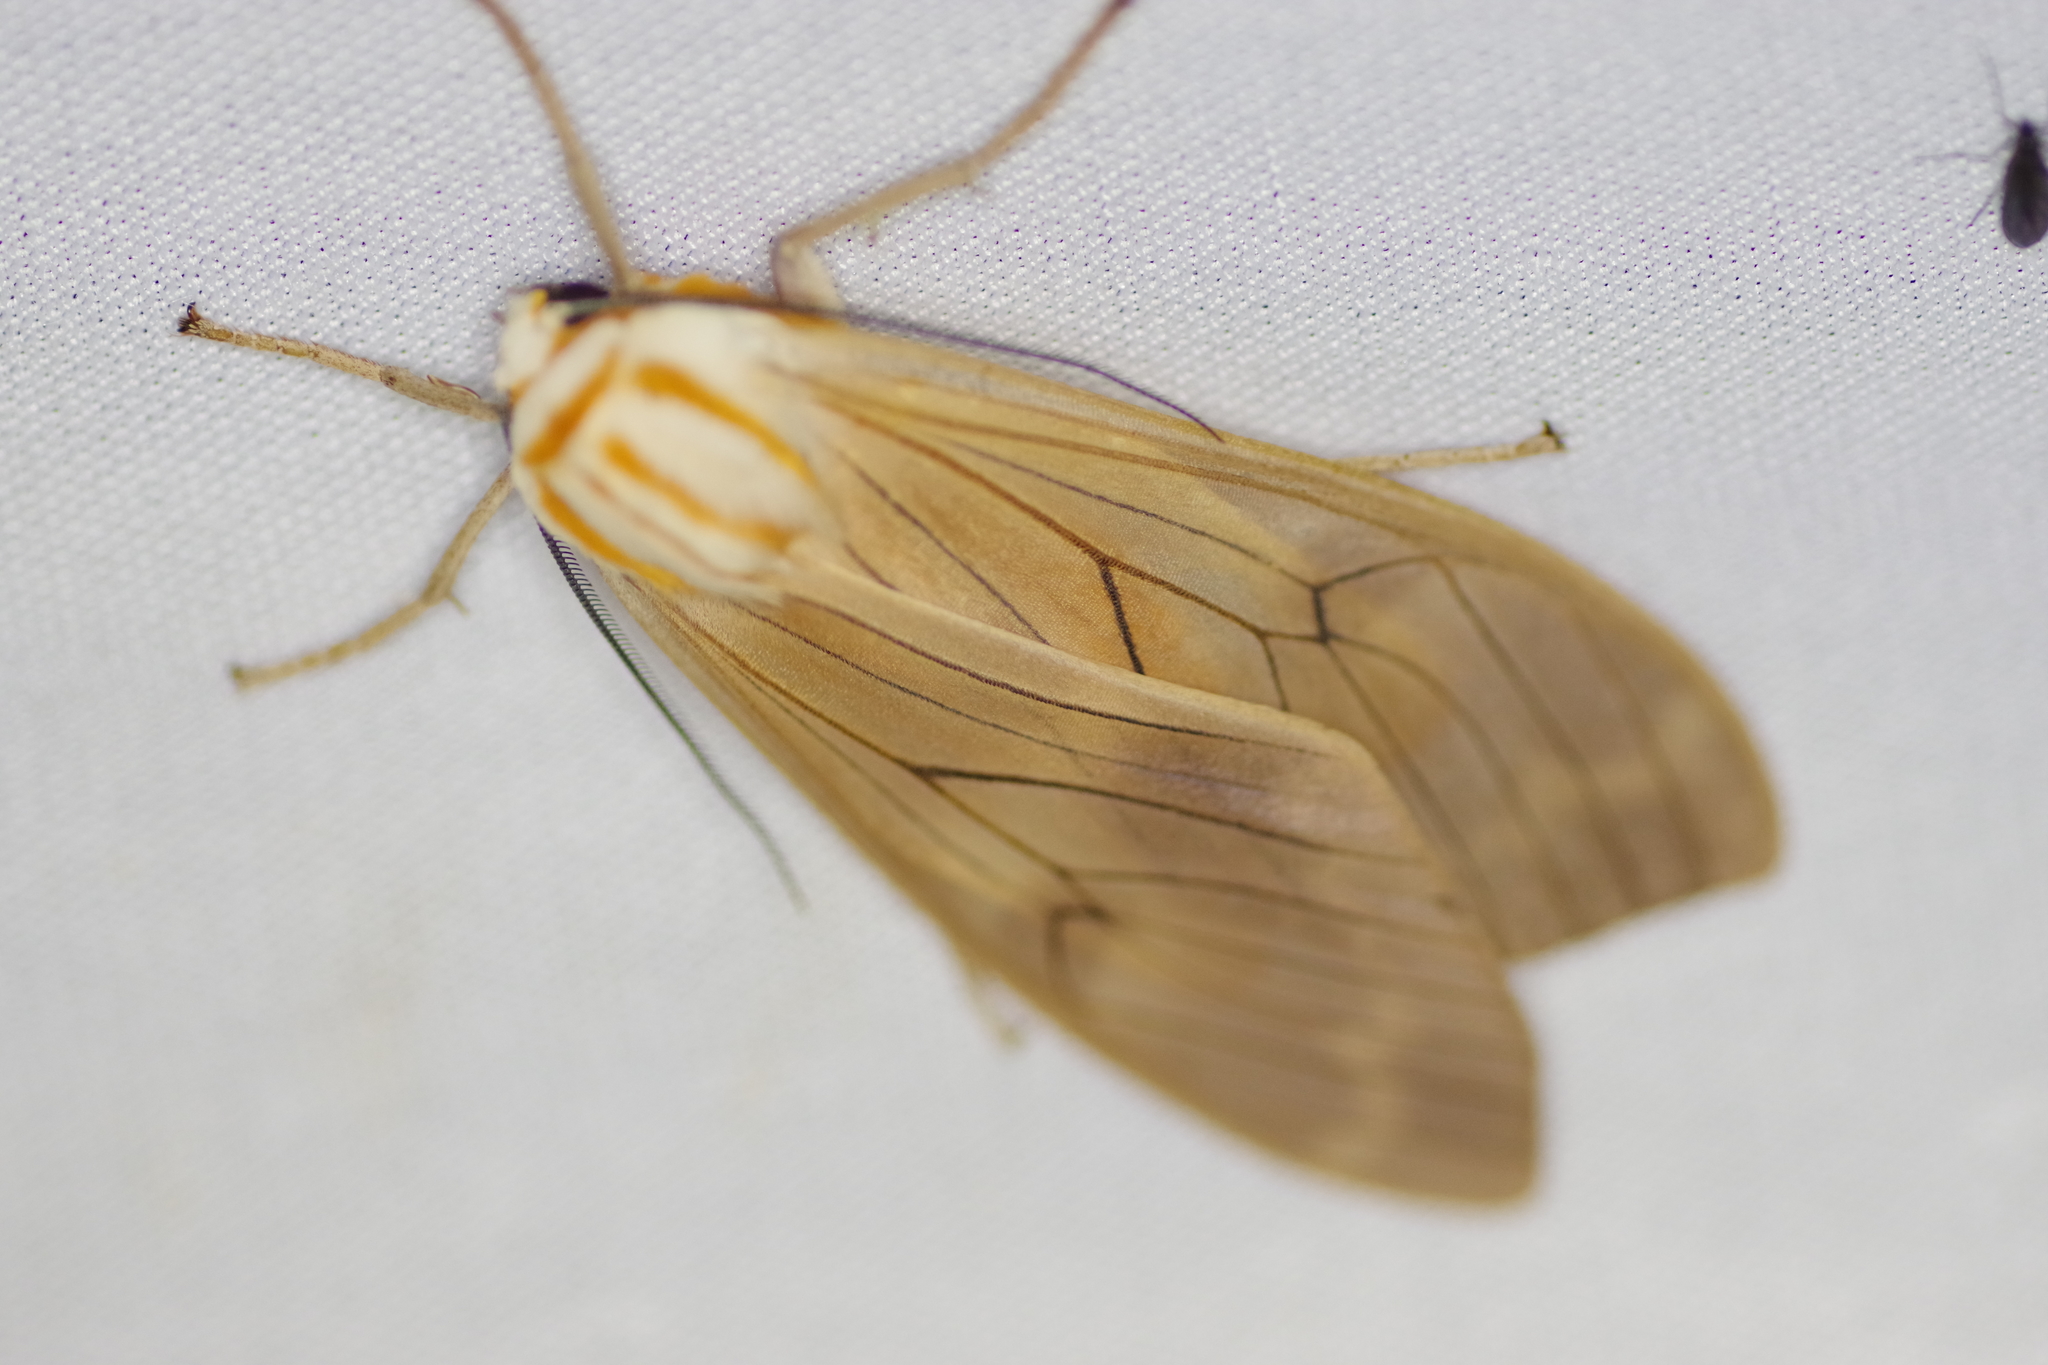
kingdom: Animalia
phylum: Arthropoda
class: Insecta
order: Lepidoptera
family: Erebidae
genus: Amastus
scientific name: Amastus aconia
